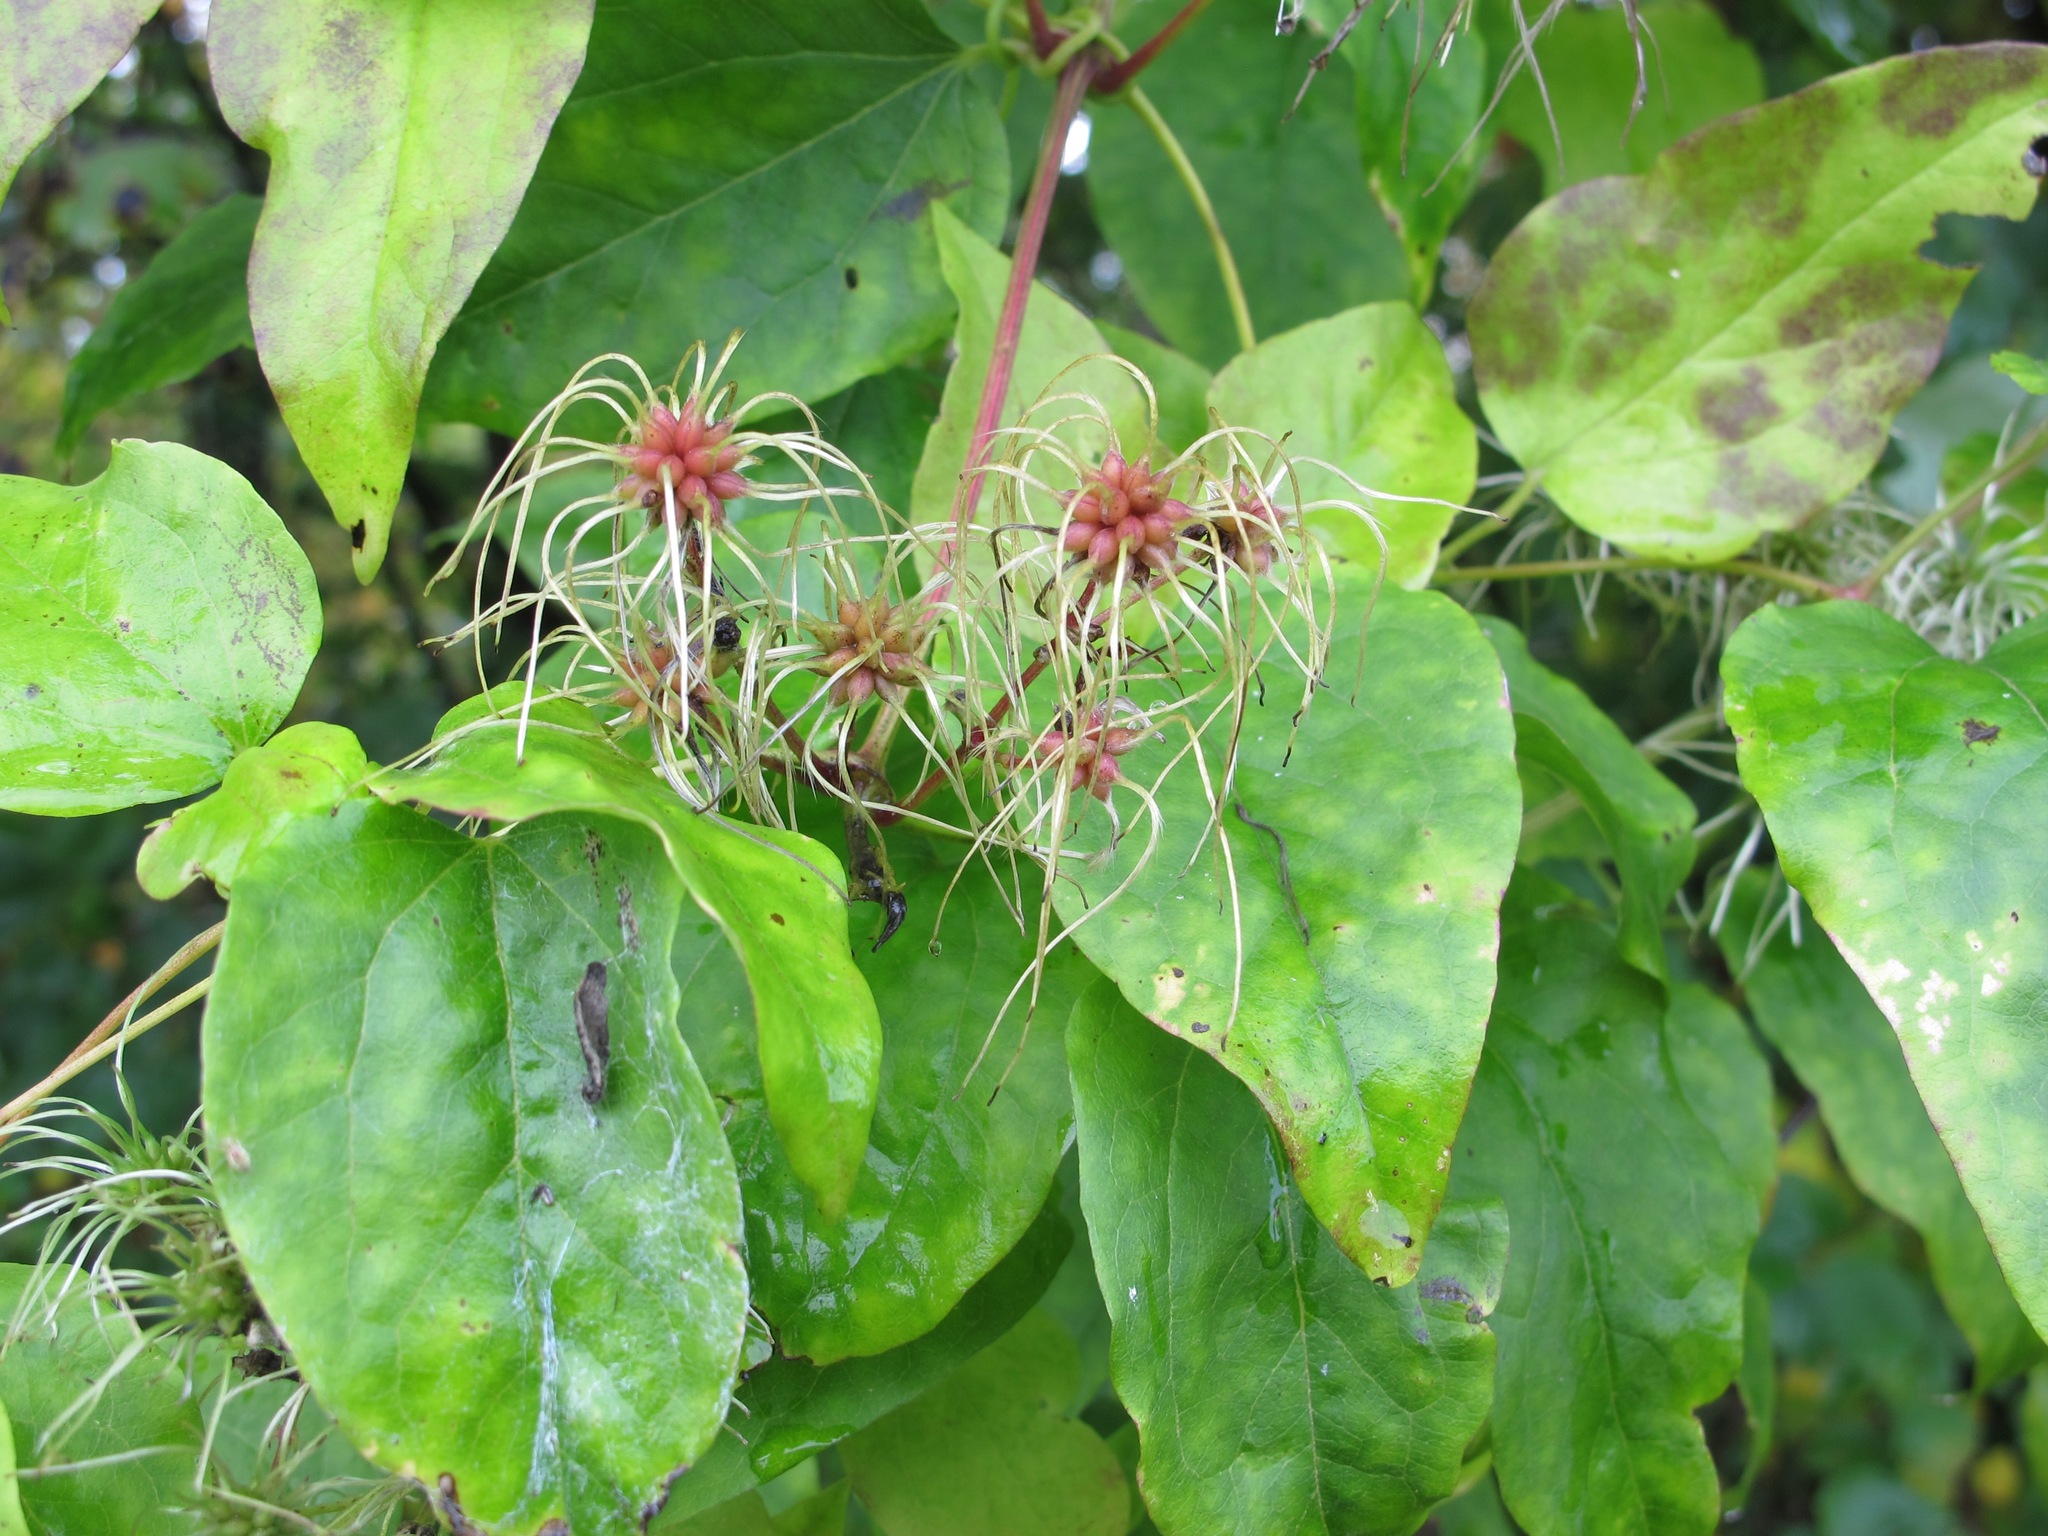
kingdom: Plantae
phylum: Tracheophyta
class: Magnoliopsida
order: Ranunculales
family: Ranunculaceae
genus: Clematis
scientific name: Clematis vitalba
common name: Evergreen clematis
